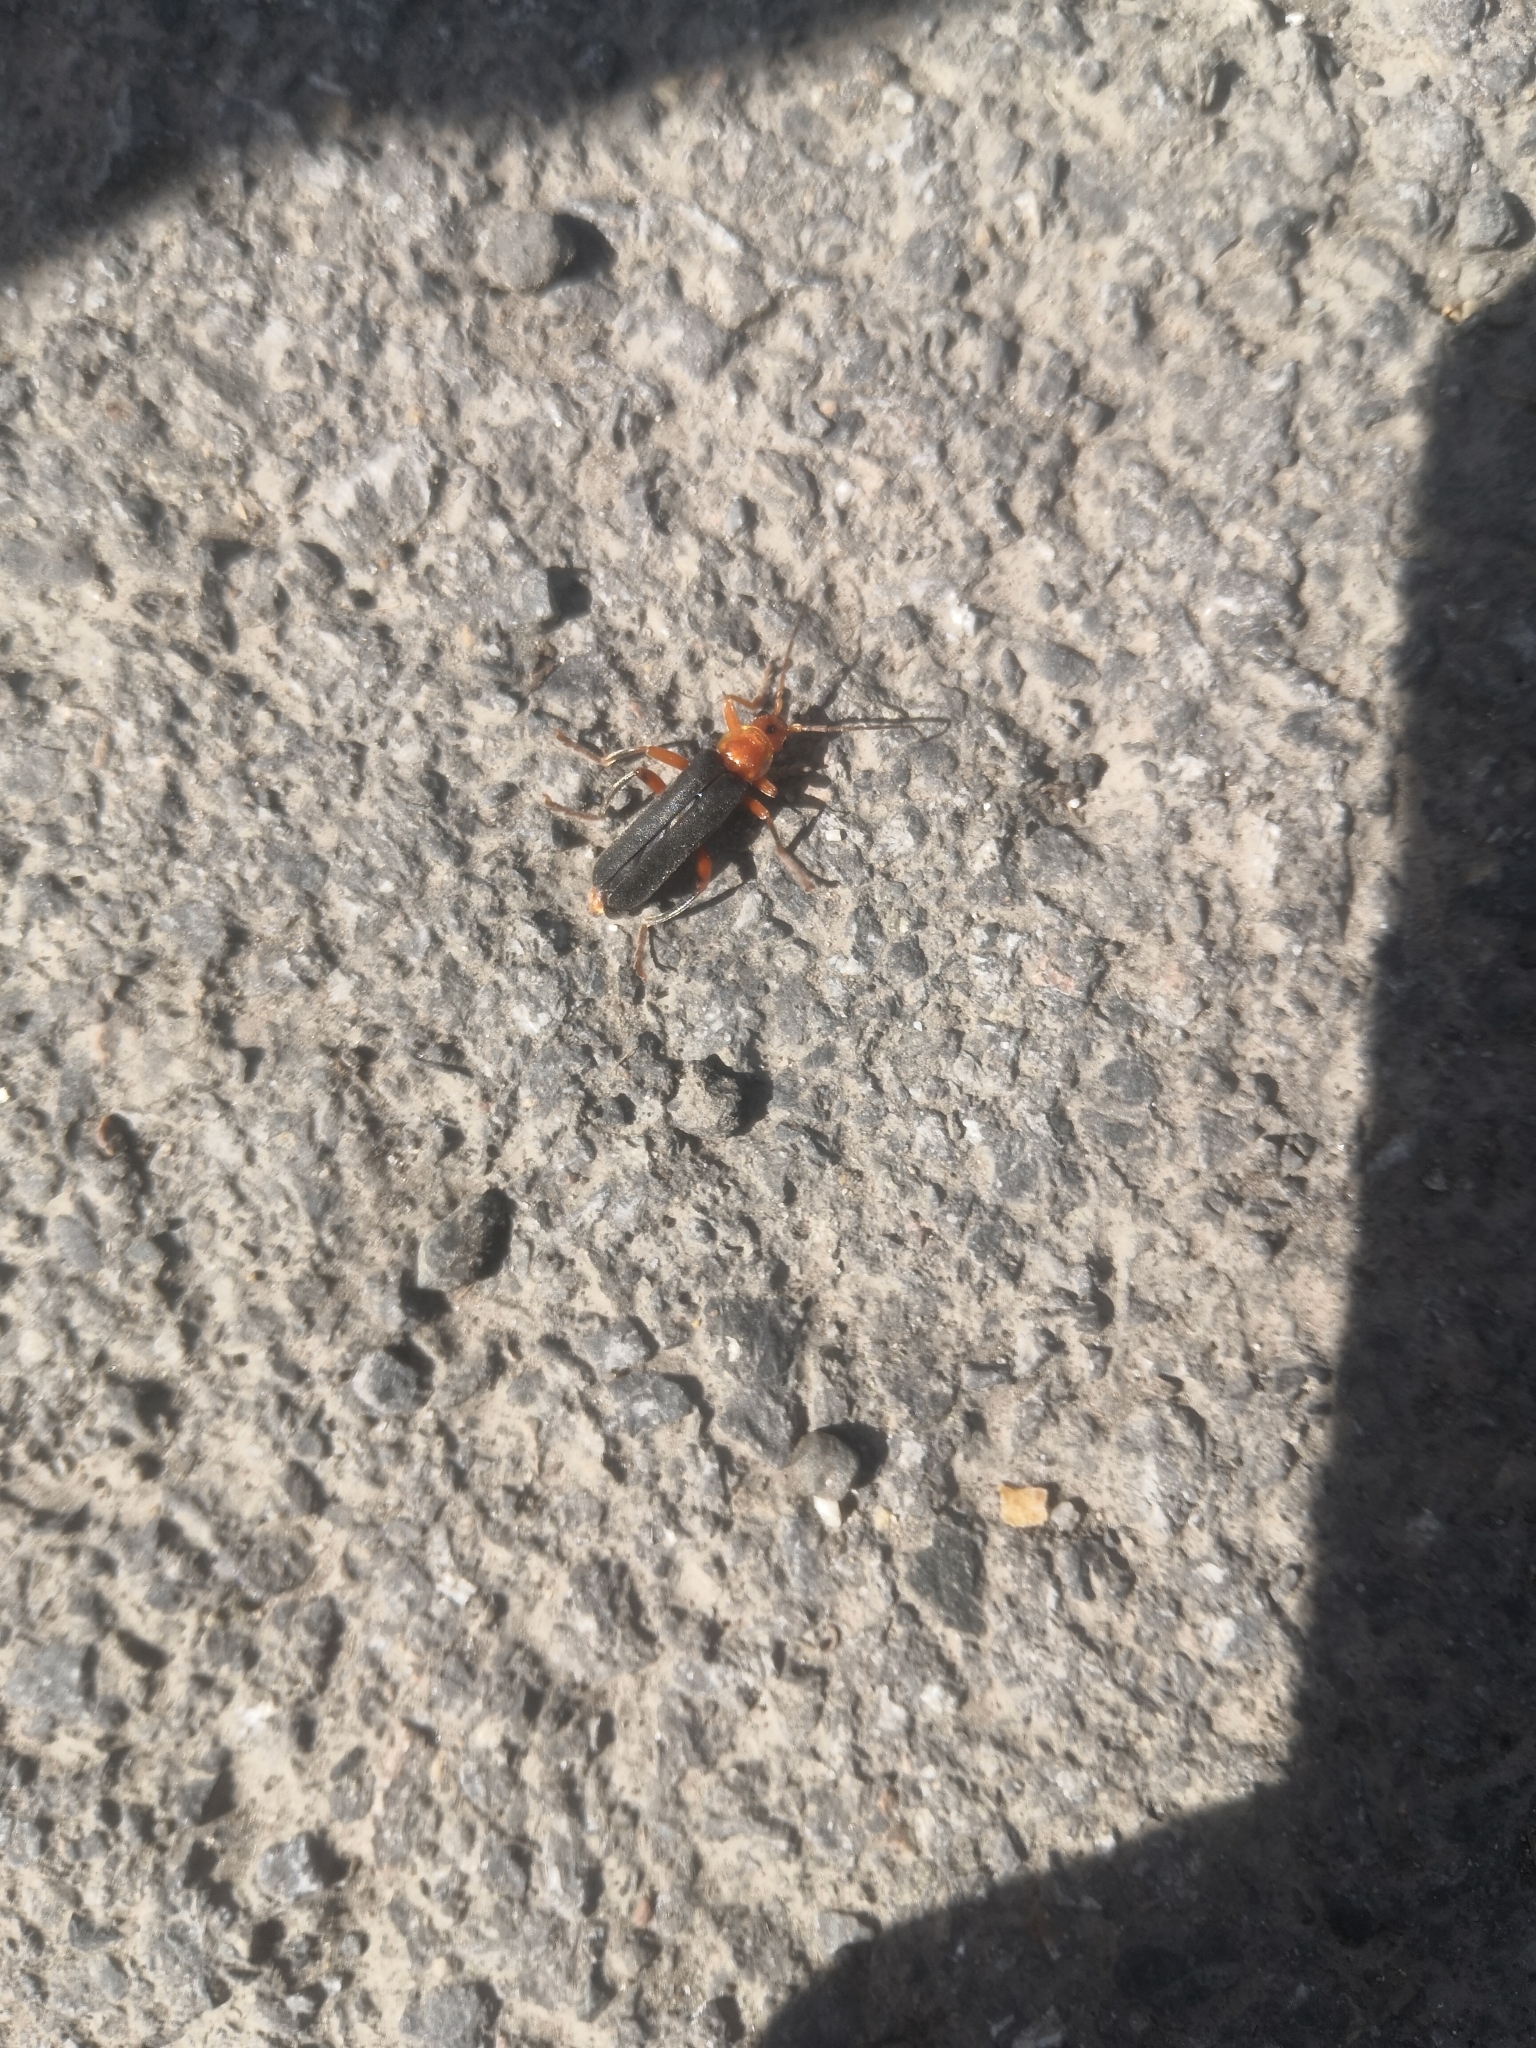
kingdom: Animalia
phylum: Arthropoda
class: Insecta
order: Coleoptera
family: Cantharidae
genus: Cantharis
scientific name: Cantharis livida
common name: Livid soldier beetle
